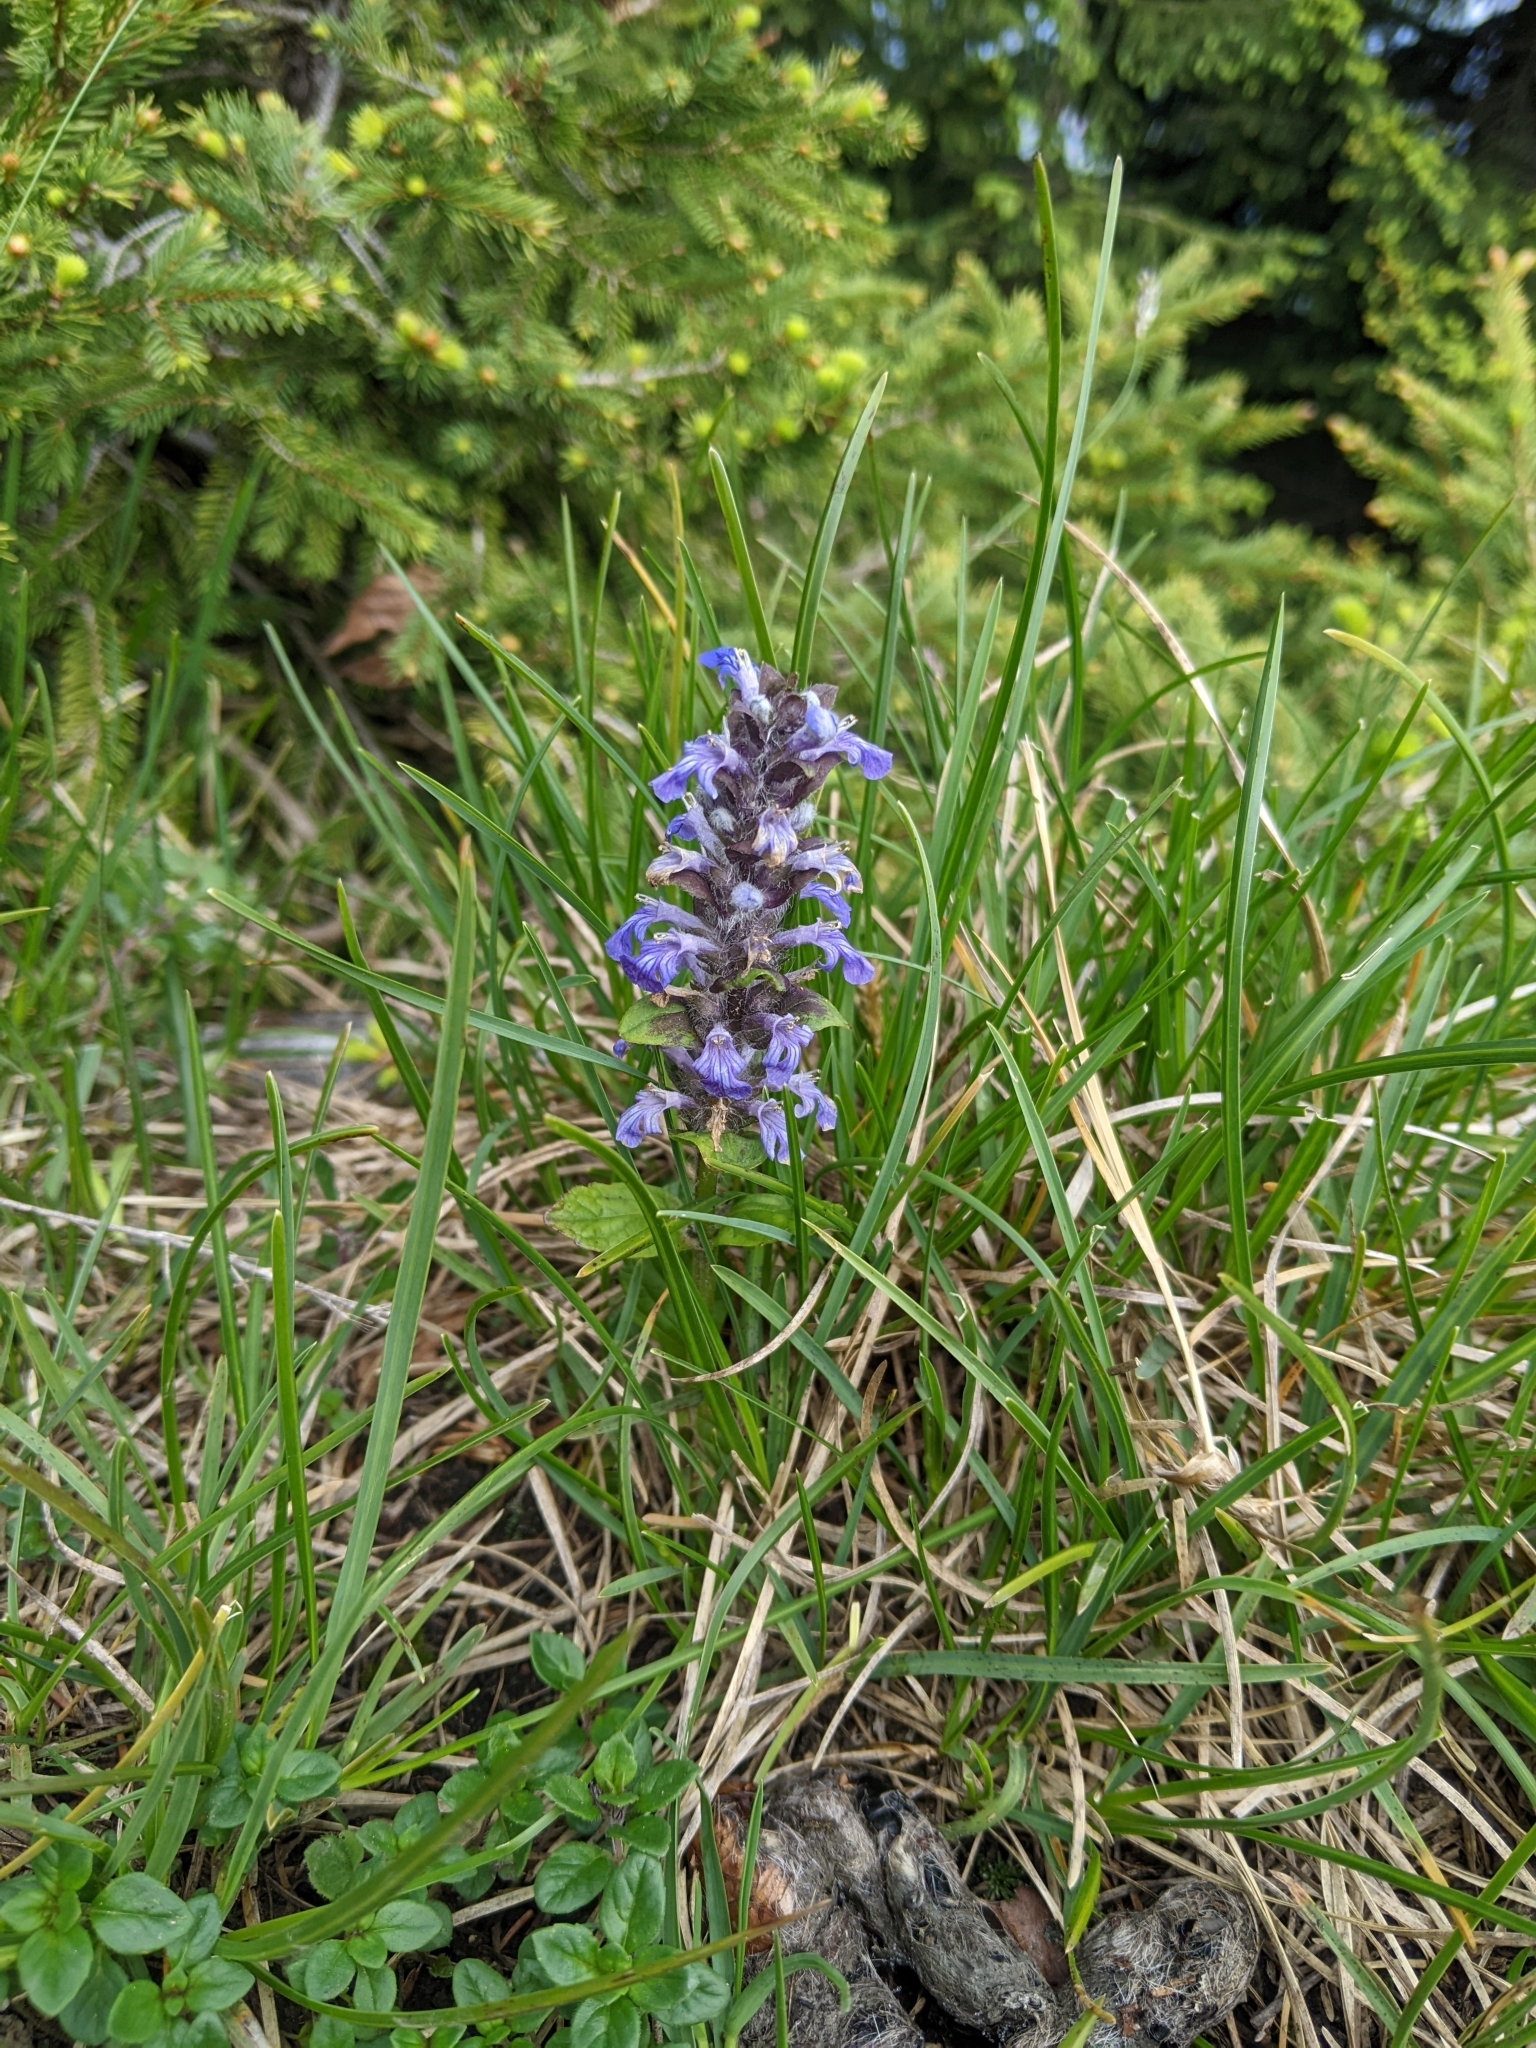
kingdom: Plantae
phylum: Tracheophyta
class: Magnoliopsida
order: Lamiales
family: Lamiaceae
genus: Ajuga
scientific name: Ajuga reptans
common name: Bugle
